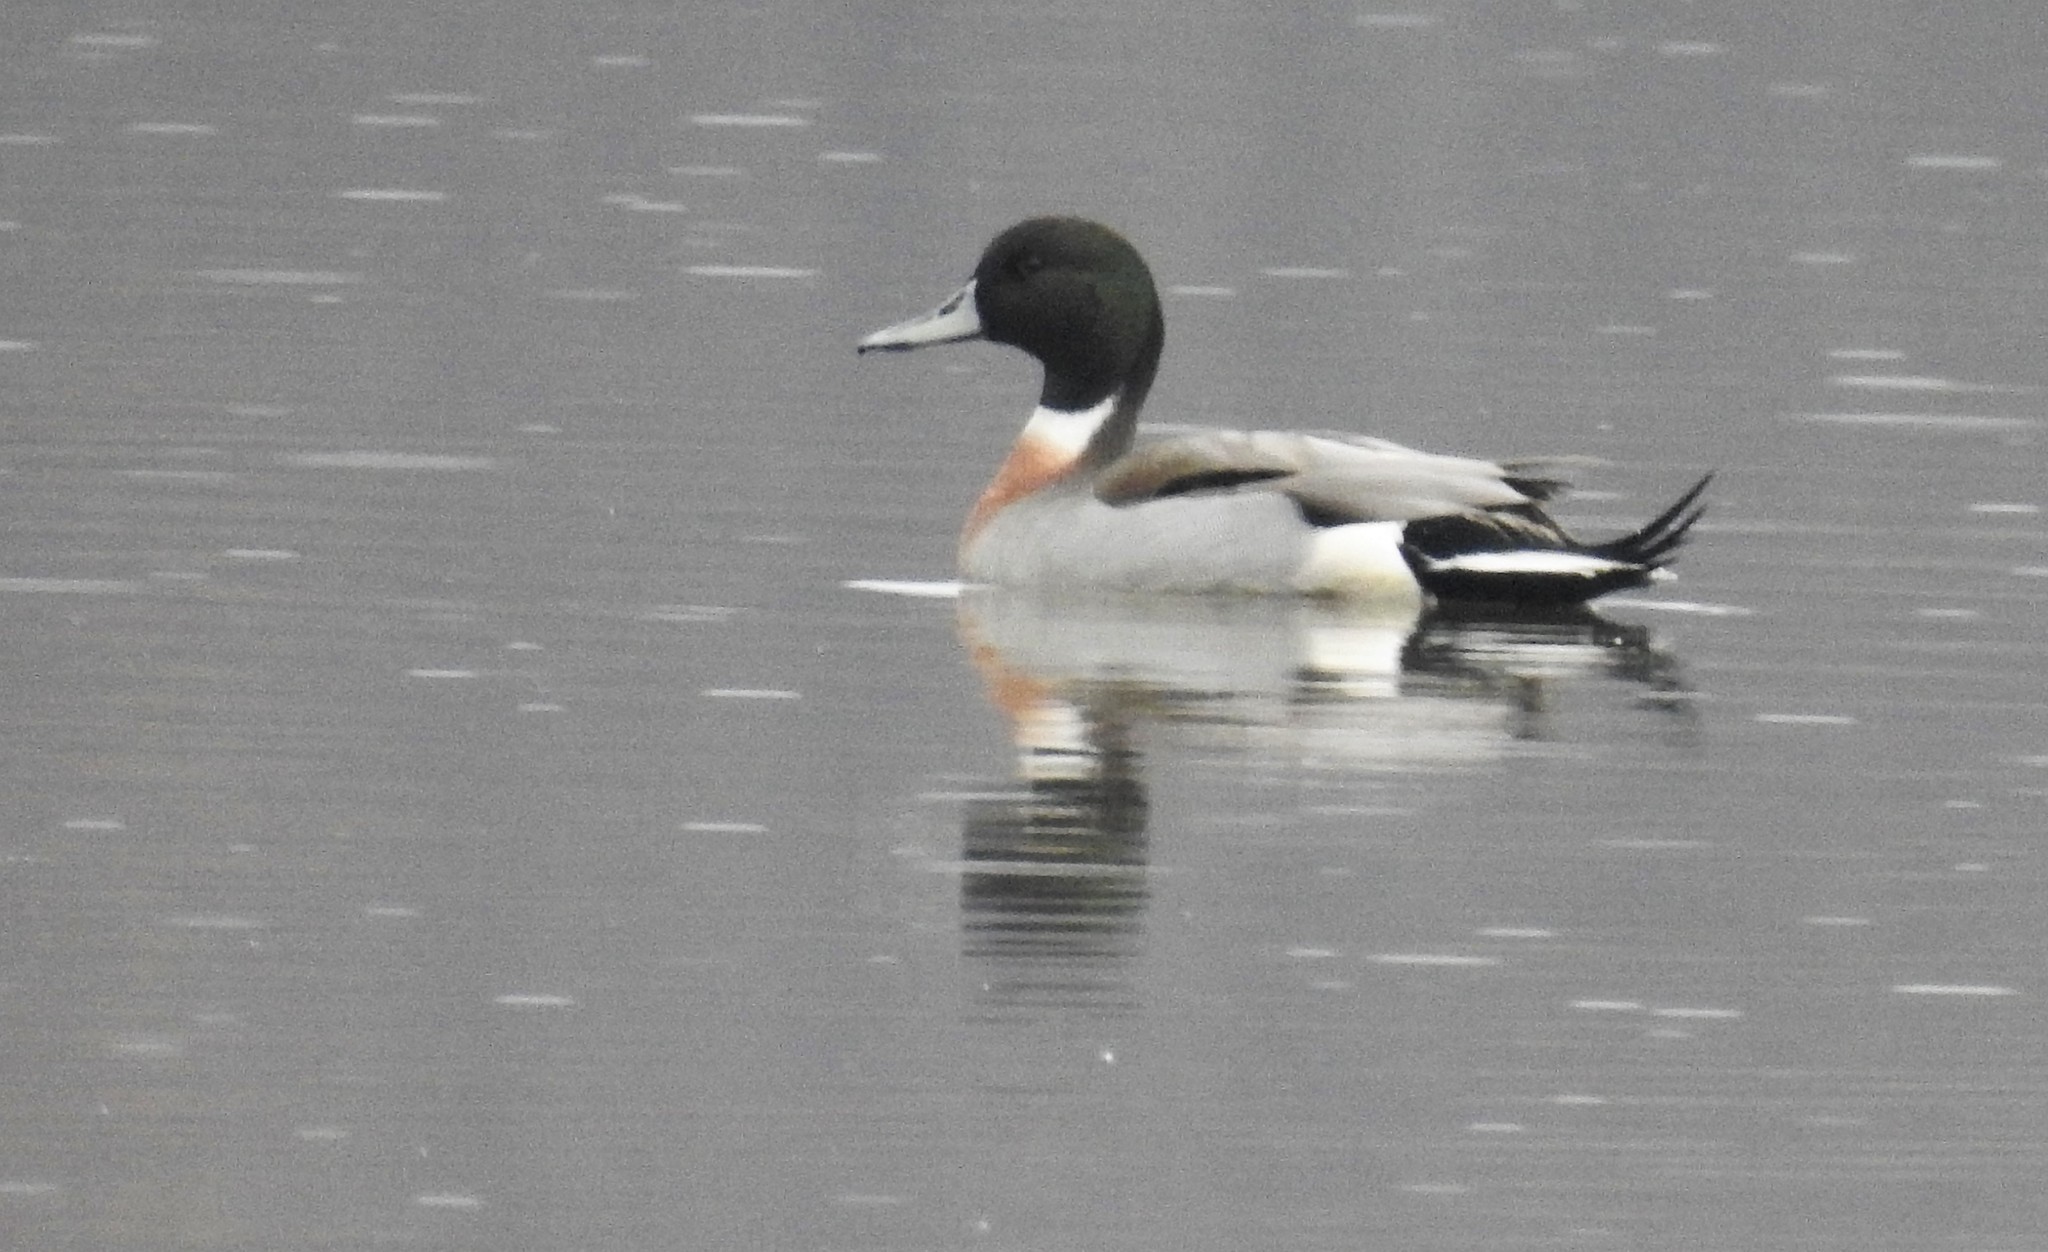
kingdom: Animalia
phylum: Chordata
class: Aves
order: Anseriformes
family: Anatidae
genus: Anas
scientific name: Anas
